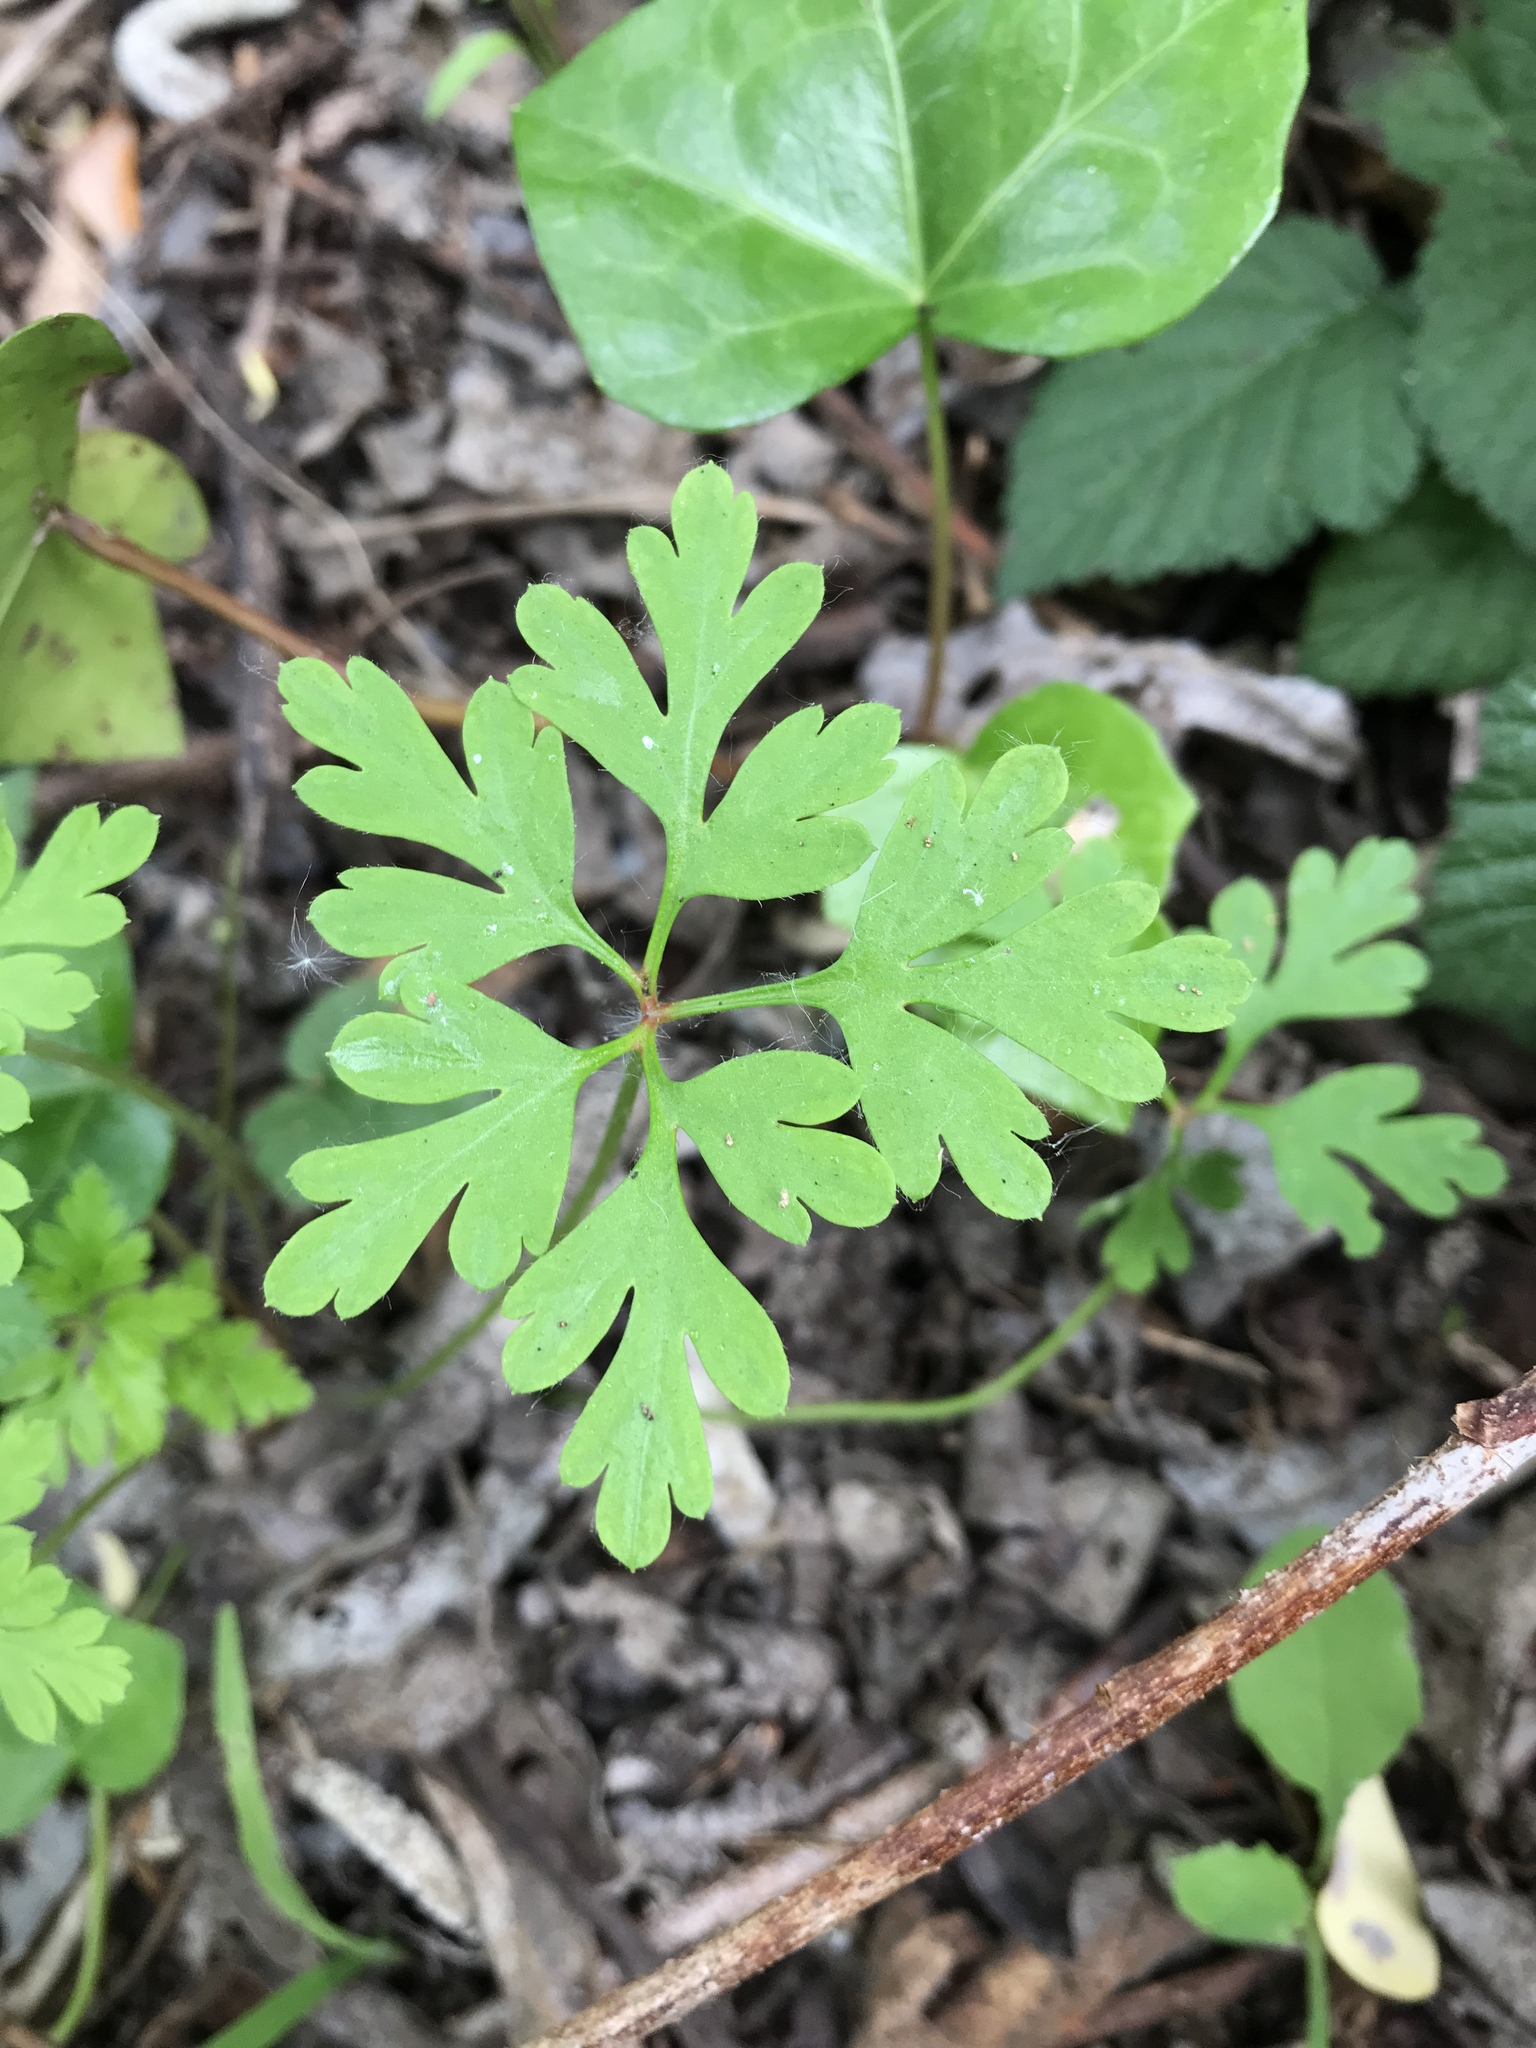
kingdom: Plantae
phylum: Tracheophyta
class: Magnoliopsida
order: Geraniales
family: Geraniaceae
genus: Geranium
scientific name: Geranium
